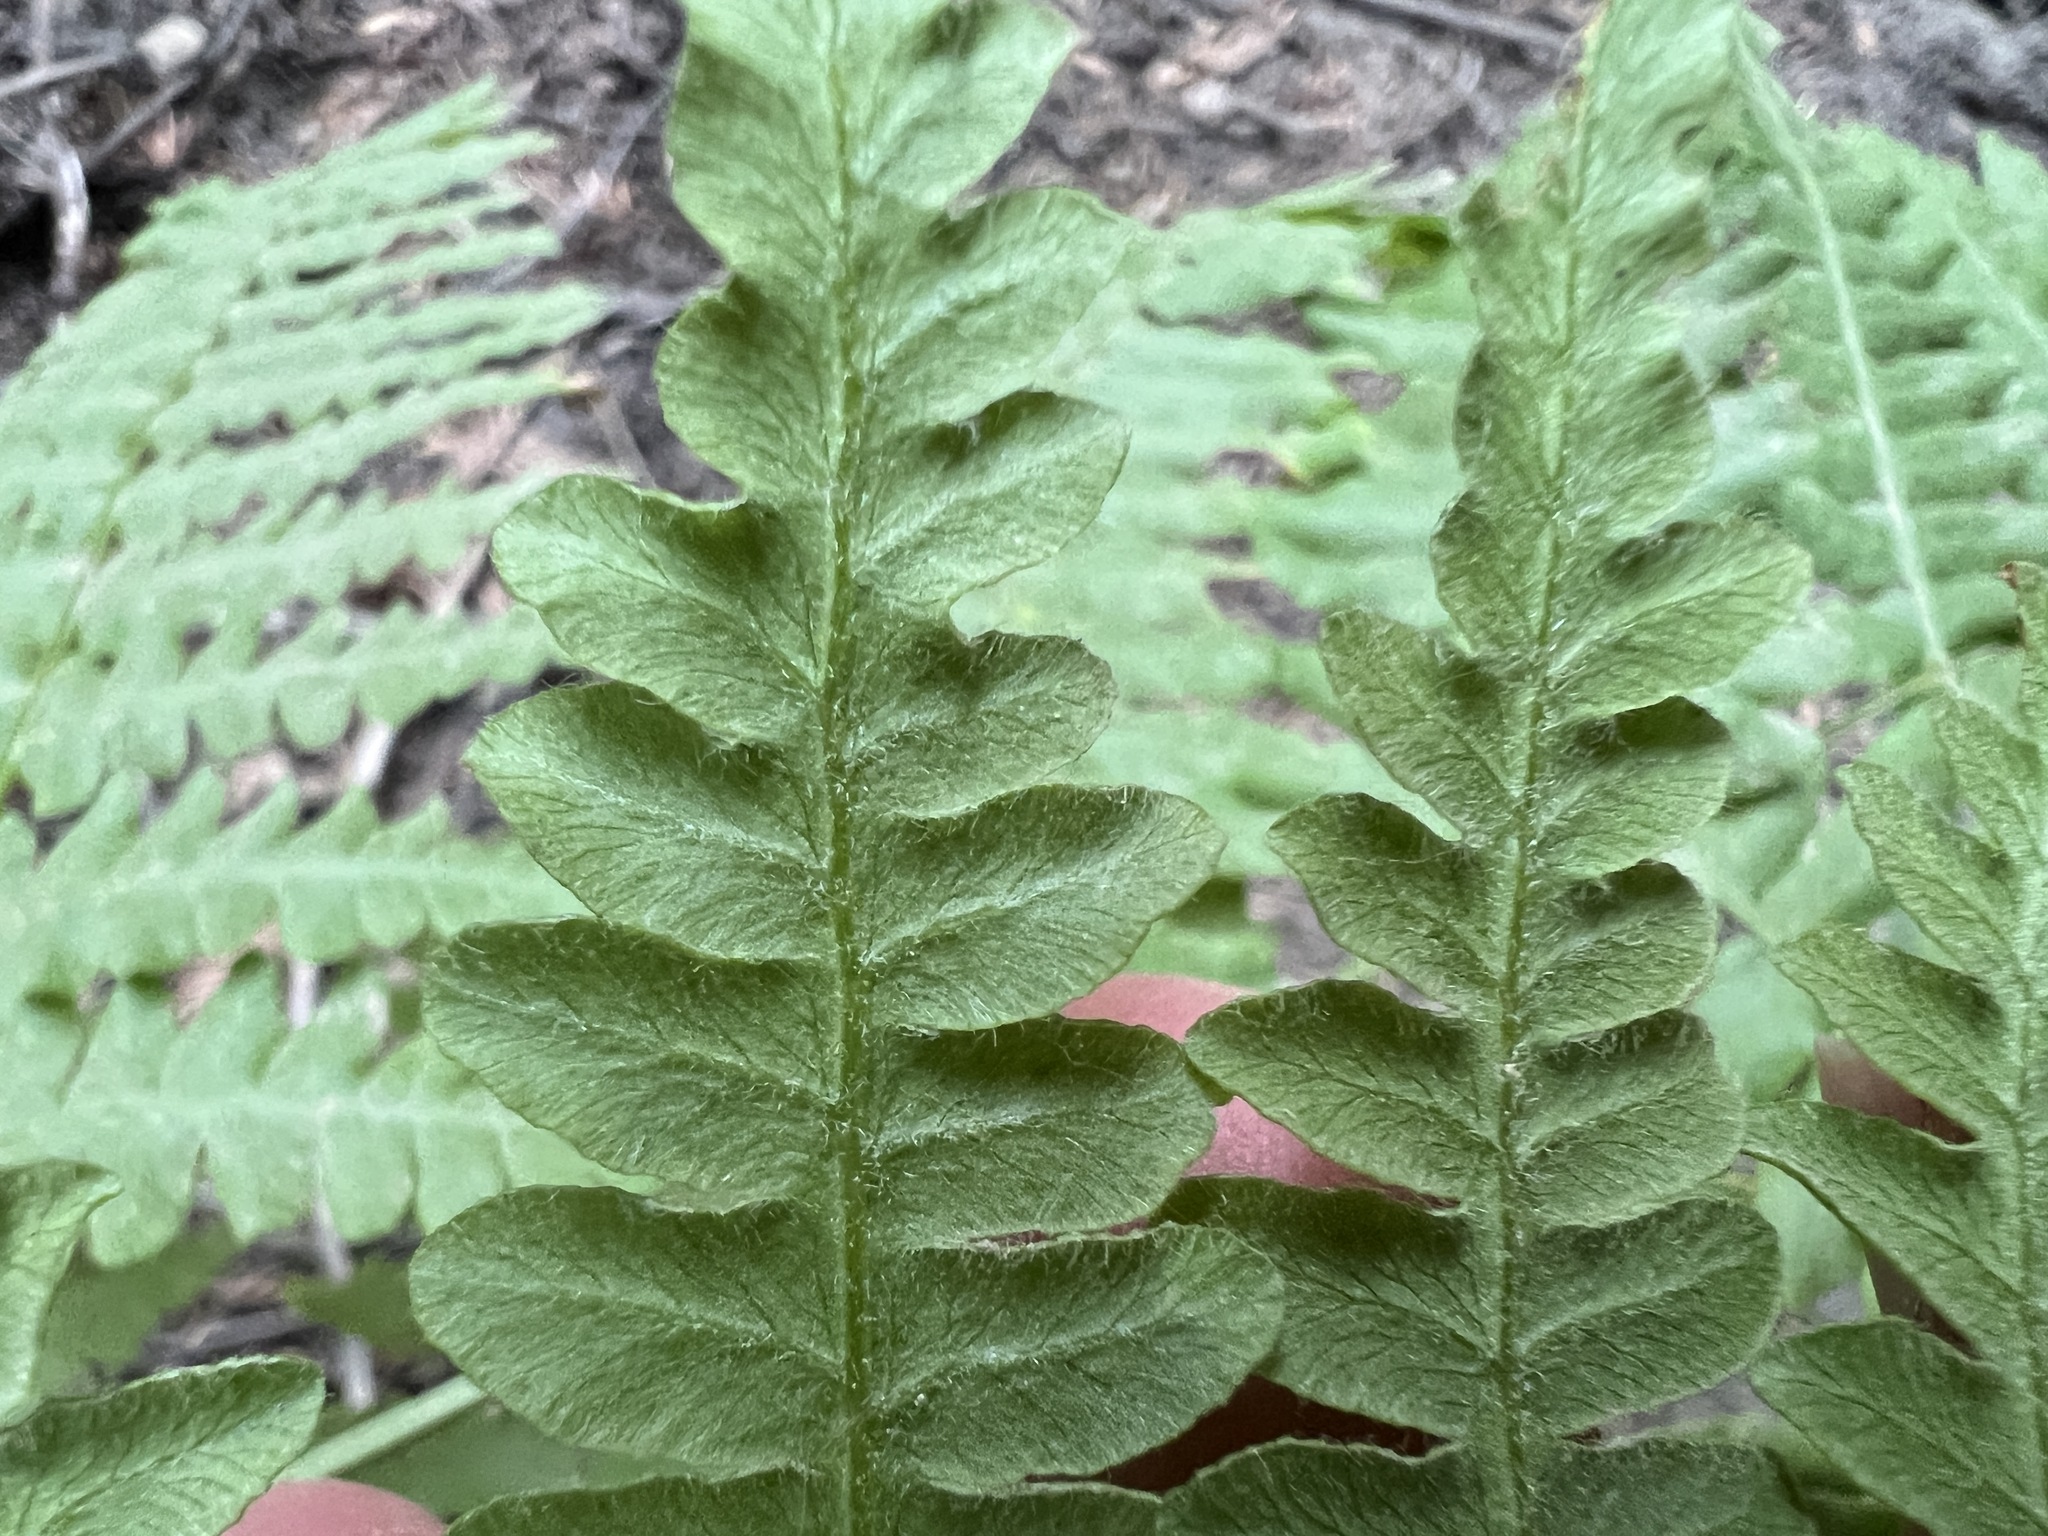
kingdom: Plantae
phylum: Tracheophyta
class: Polypodiopsida
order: Polypodiales
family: Dennstaedtiaceae
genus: Pteridium
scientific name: Pteridium aquilinum
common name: Bracken
